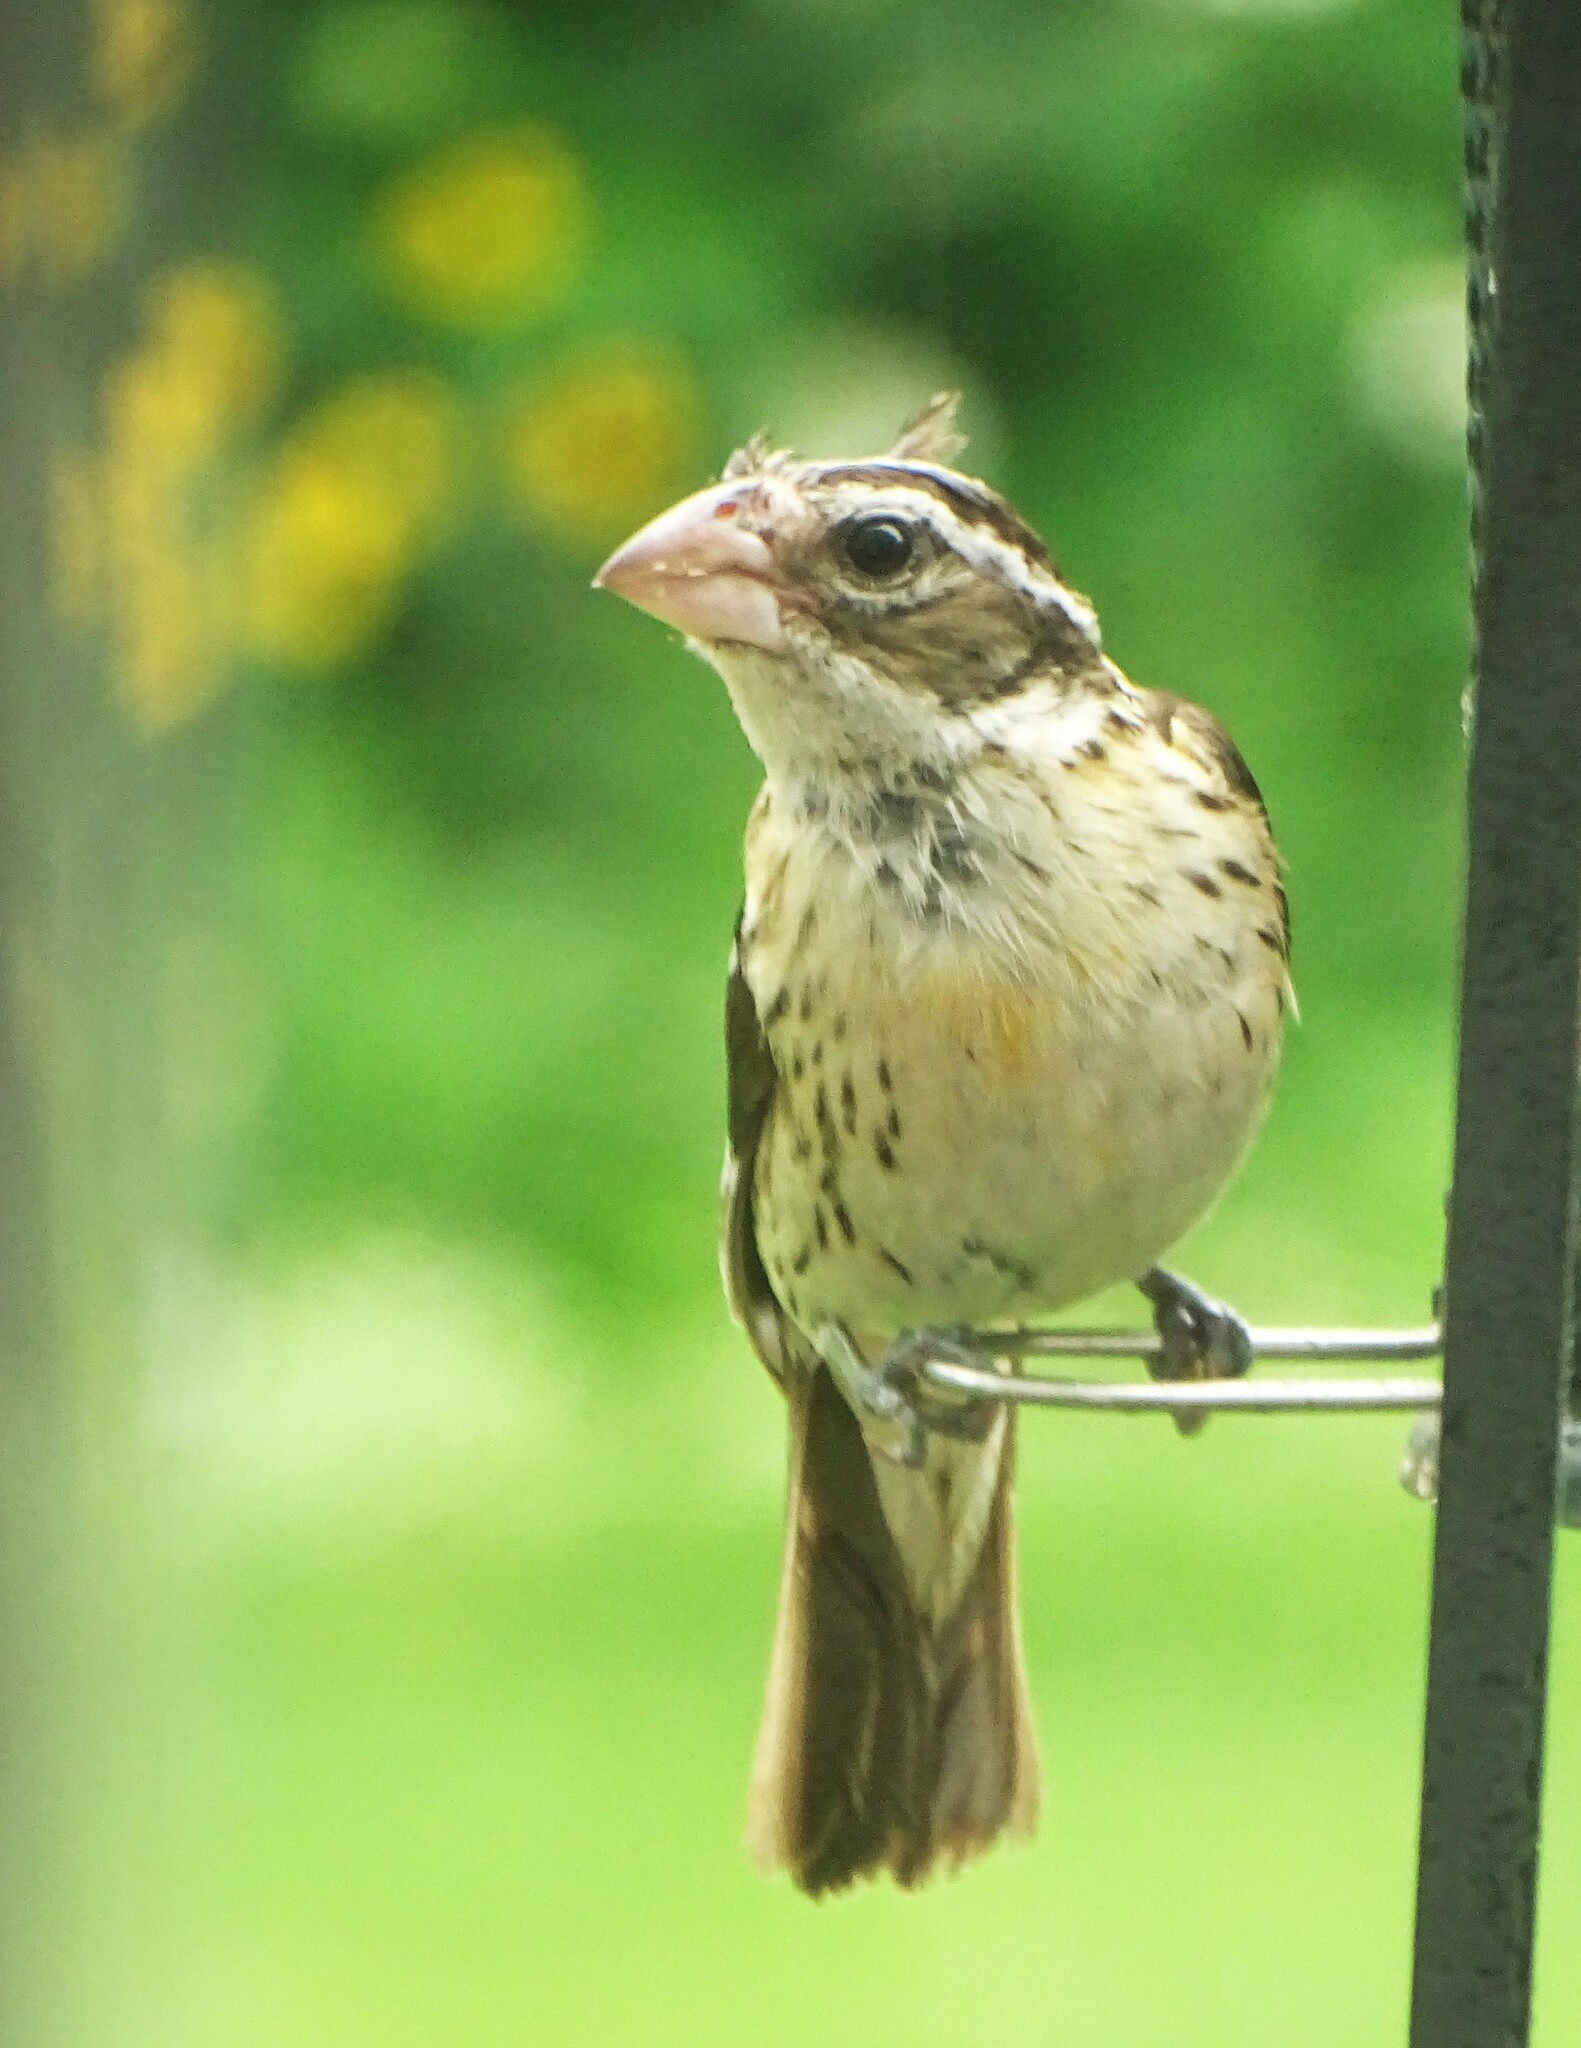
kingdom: Animalia
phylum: Chordata
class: Aves
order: Passeriformes
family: Cardinalidae
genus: Pheucticus
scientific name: Pheucticus ludovicianus
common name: Rose-breasted grosbeak
